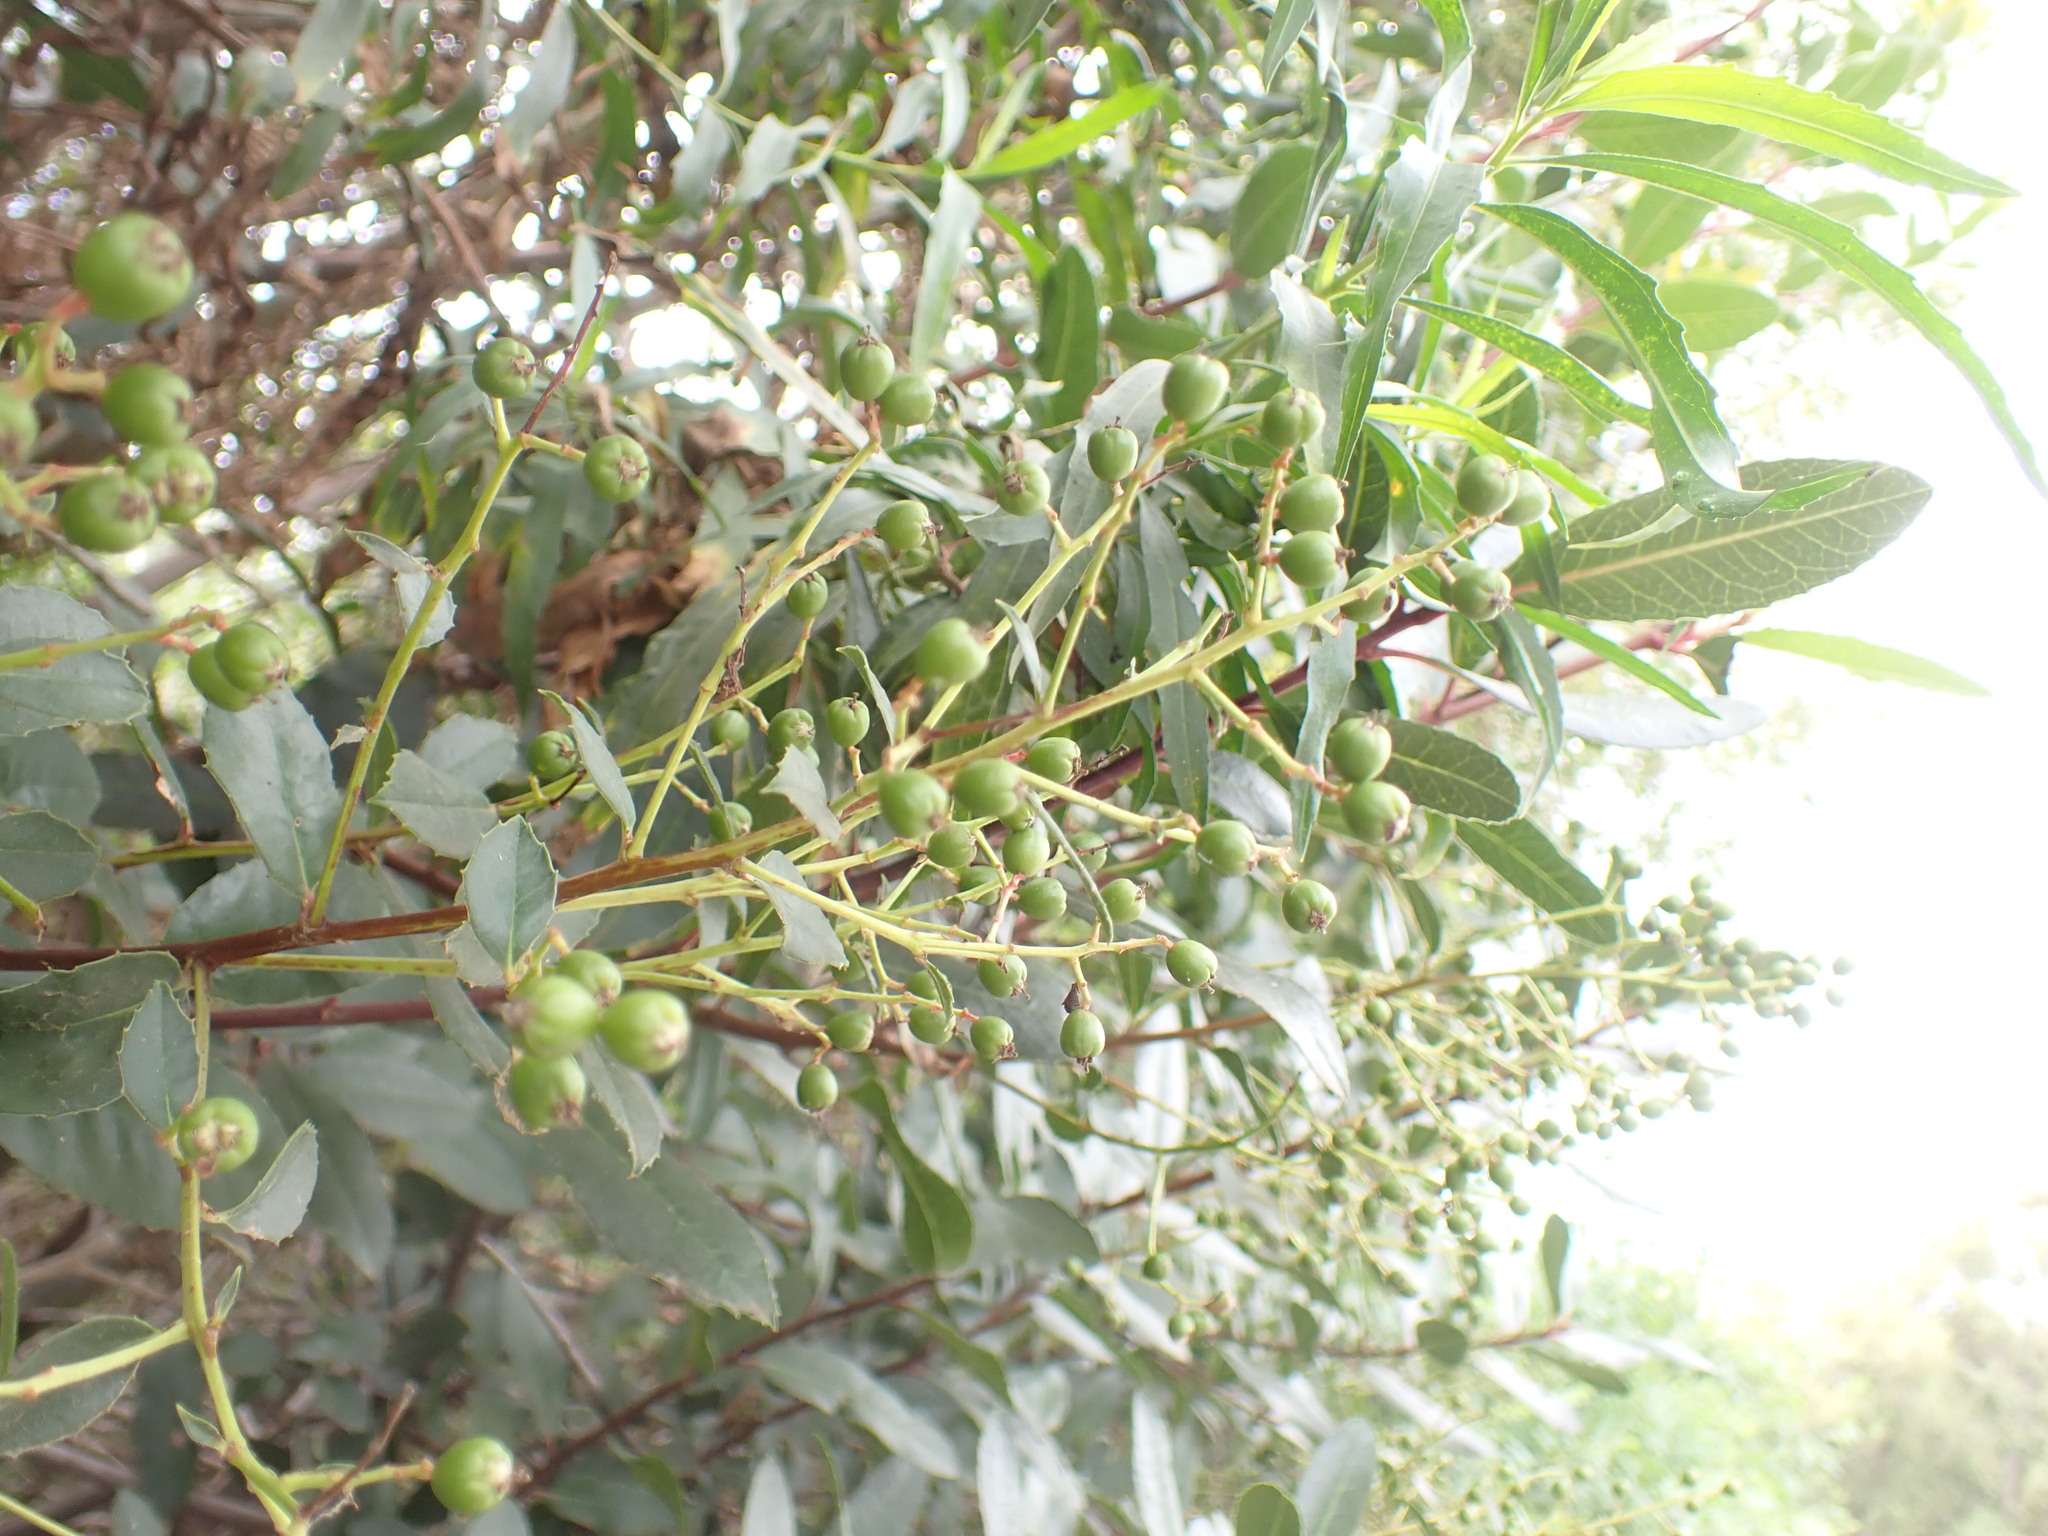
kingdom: Plantae
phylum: Tracheophyta
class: Magnoliopsida
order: Rosales
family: Rosaceae
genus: Heteromeles
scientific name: Heteromeles arbutifolia
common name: California-holly
